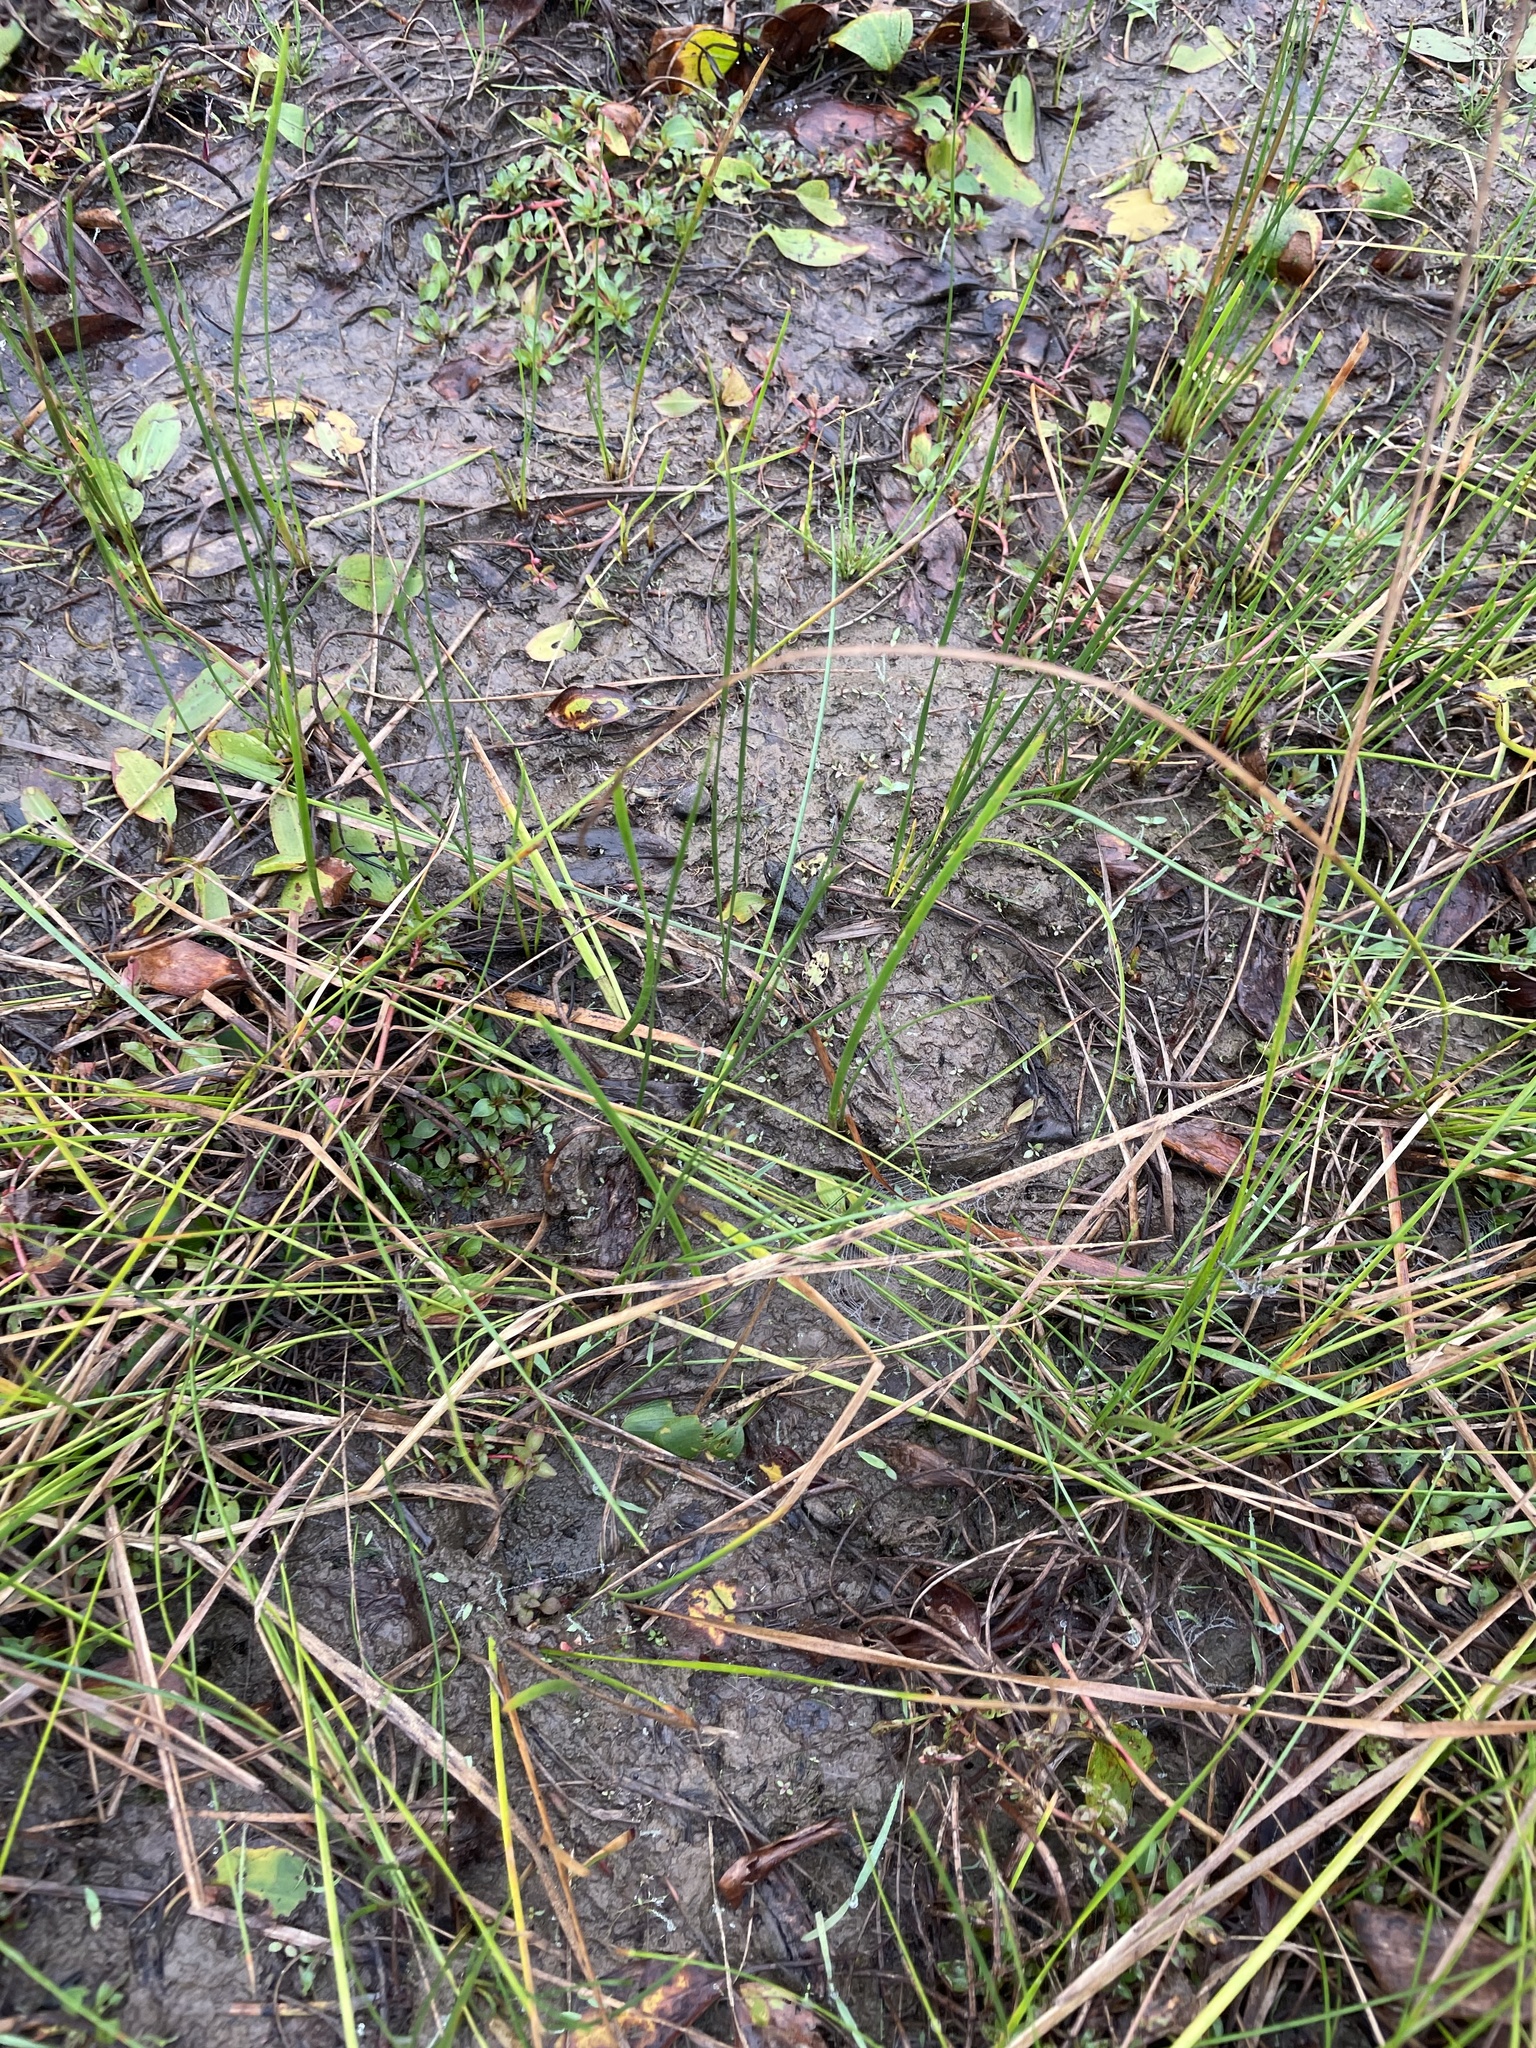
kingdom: Animalia
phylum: Chordata
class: Amphibia
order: Anura
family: Hylidae
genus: Acris
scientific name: Acris blanchardi
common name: Blanchard's cricket frog
